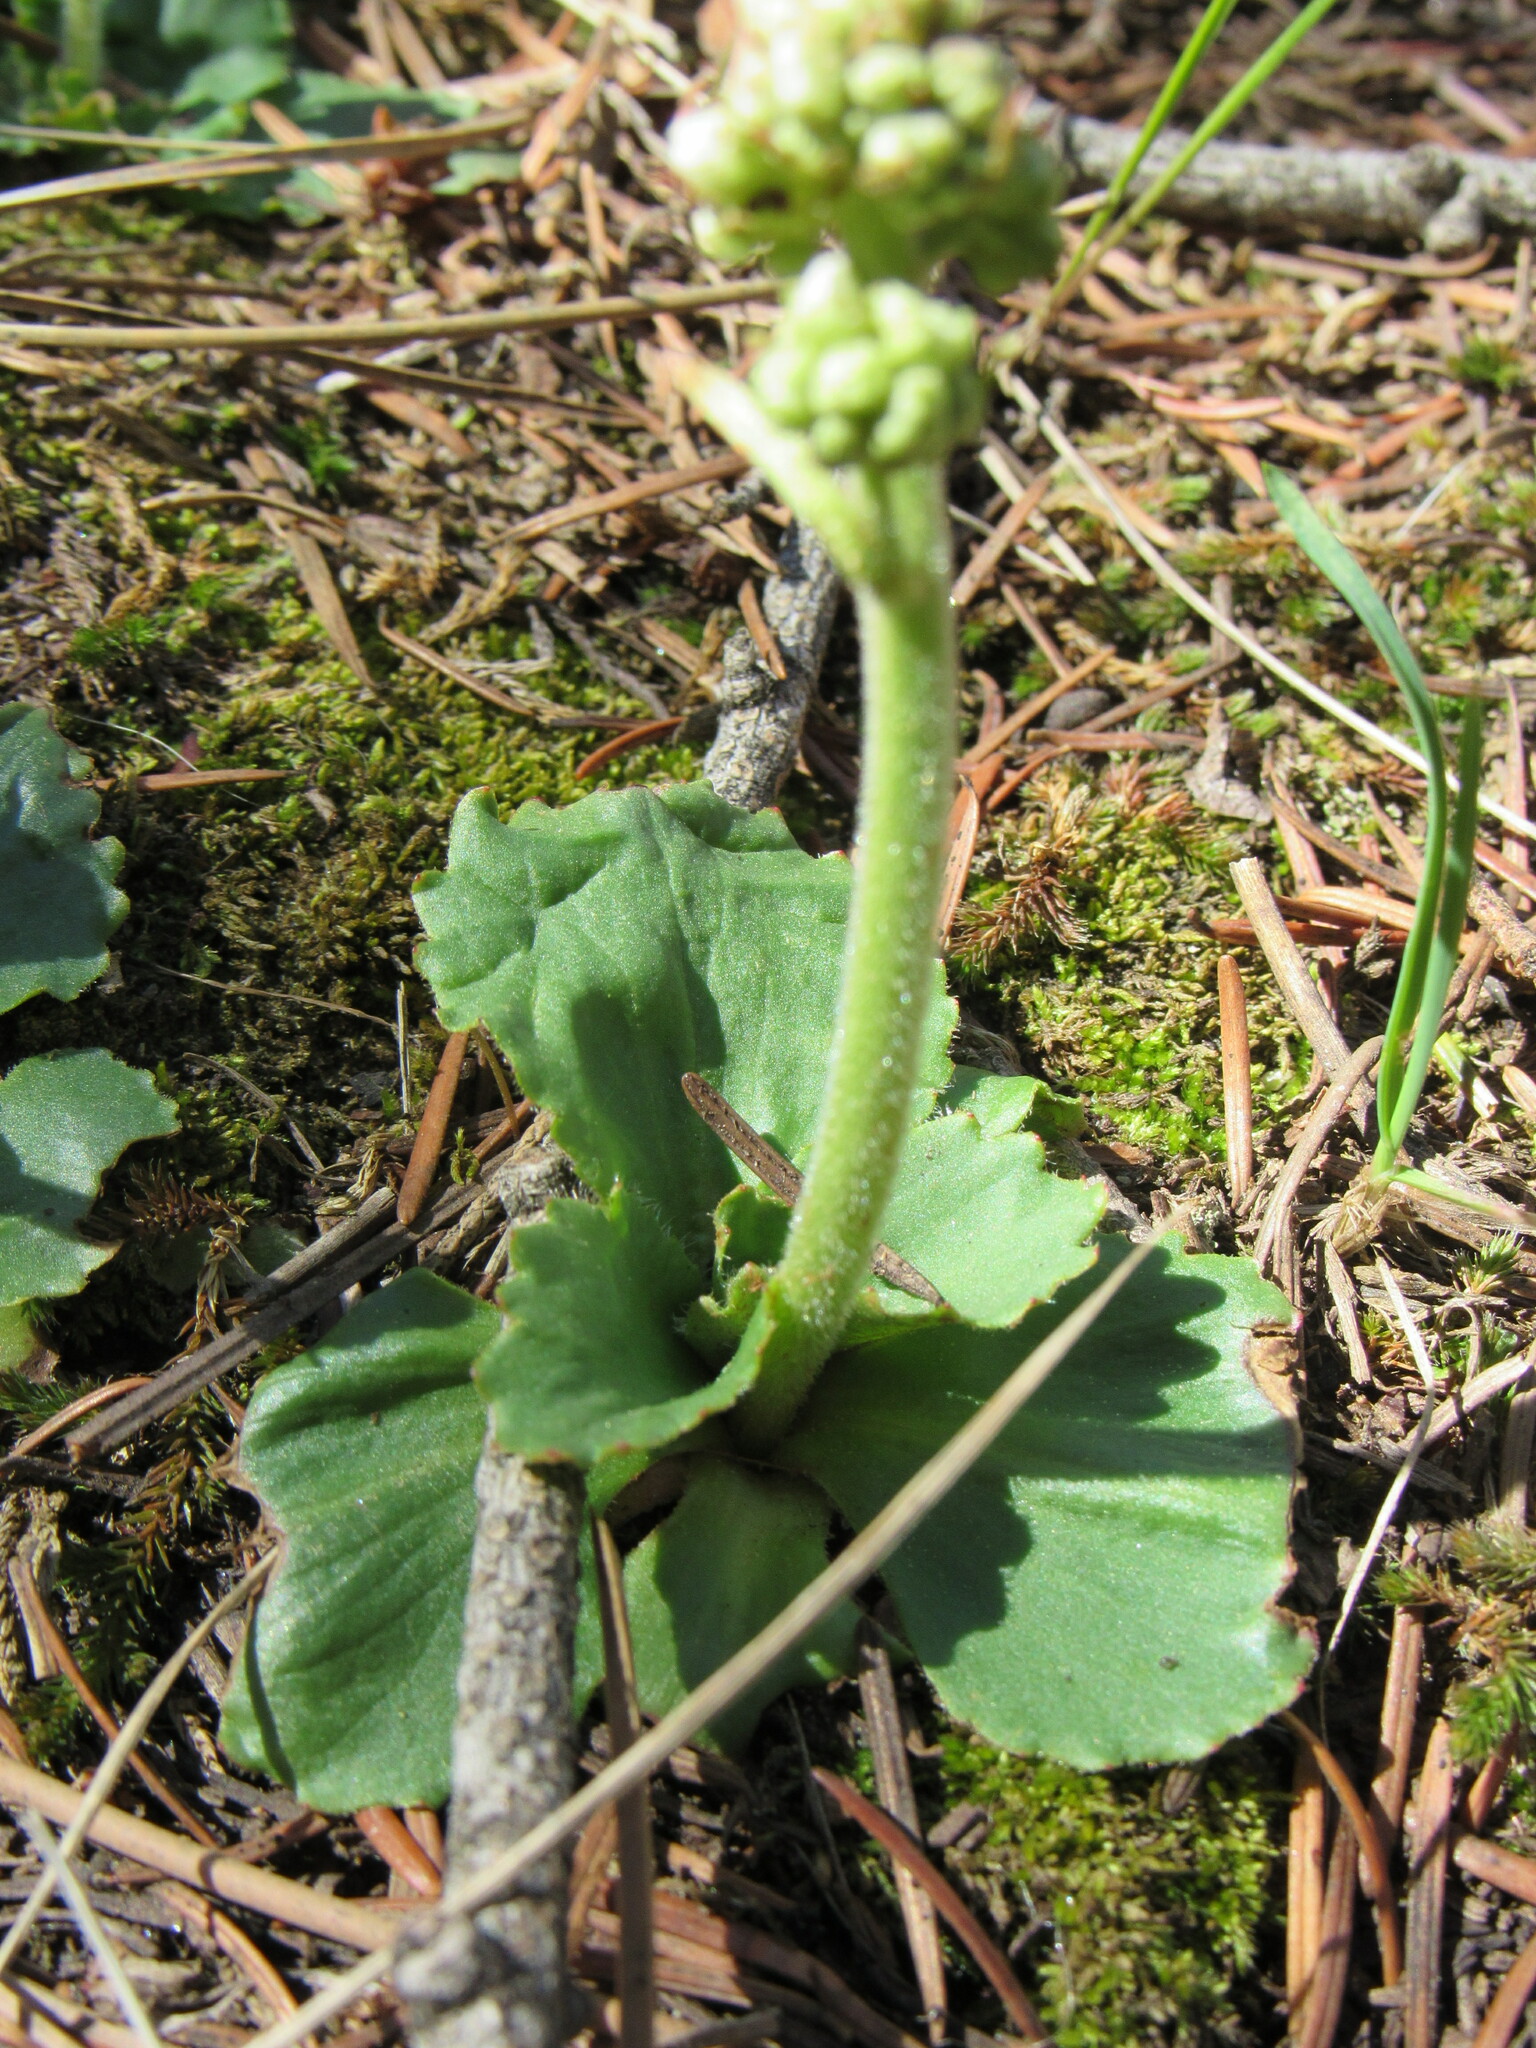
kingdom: Plantae
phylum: Tracheophyta
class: Magnoliopsida
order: Saxifragales
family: Saxifragaceae
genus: Micranthes
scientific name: Micranthes rhomboidea
